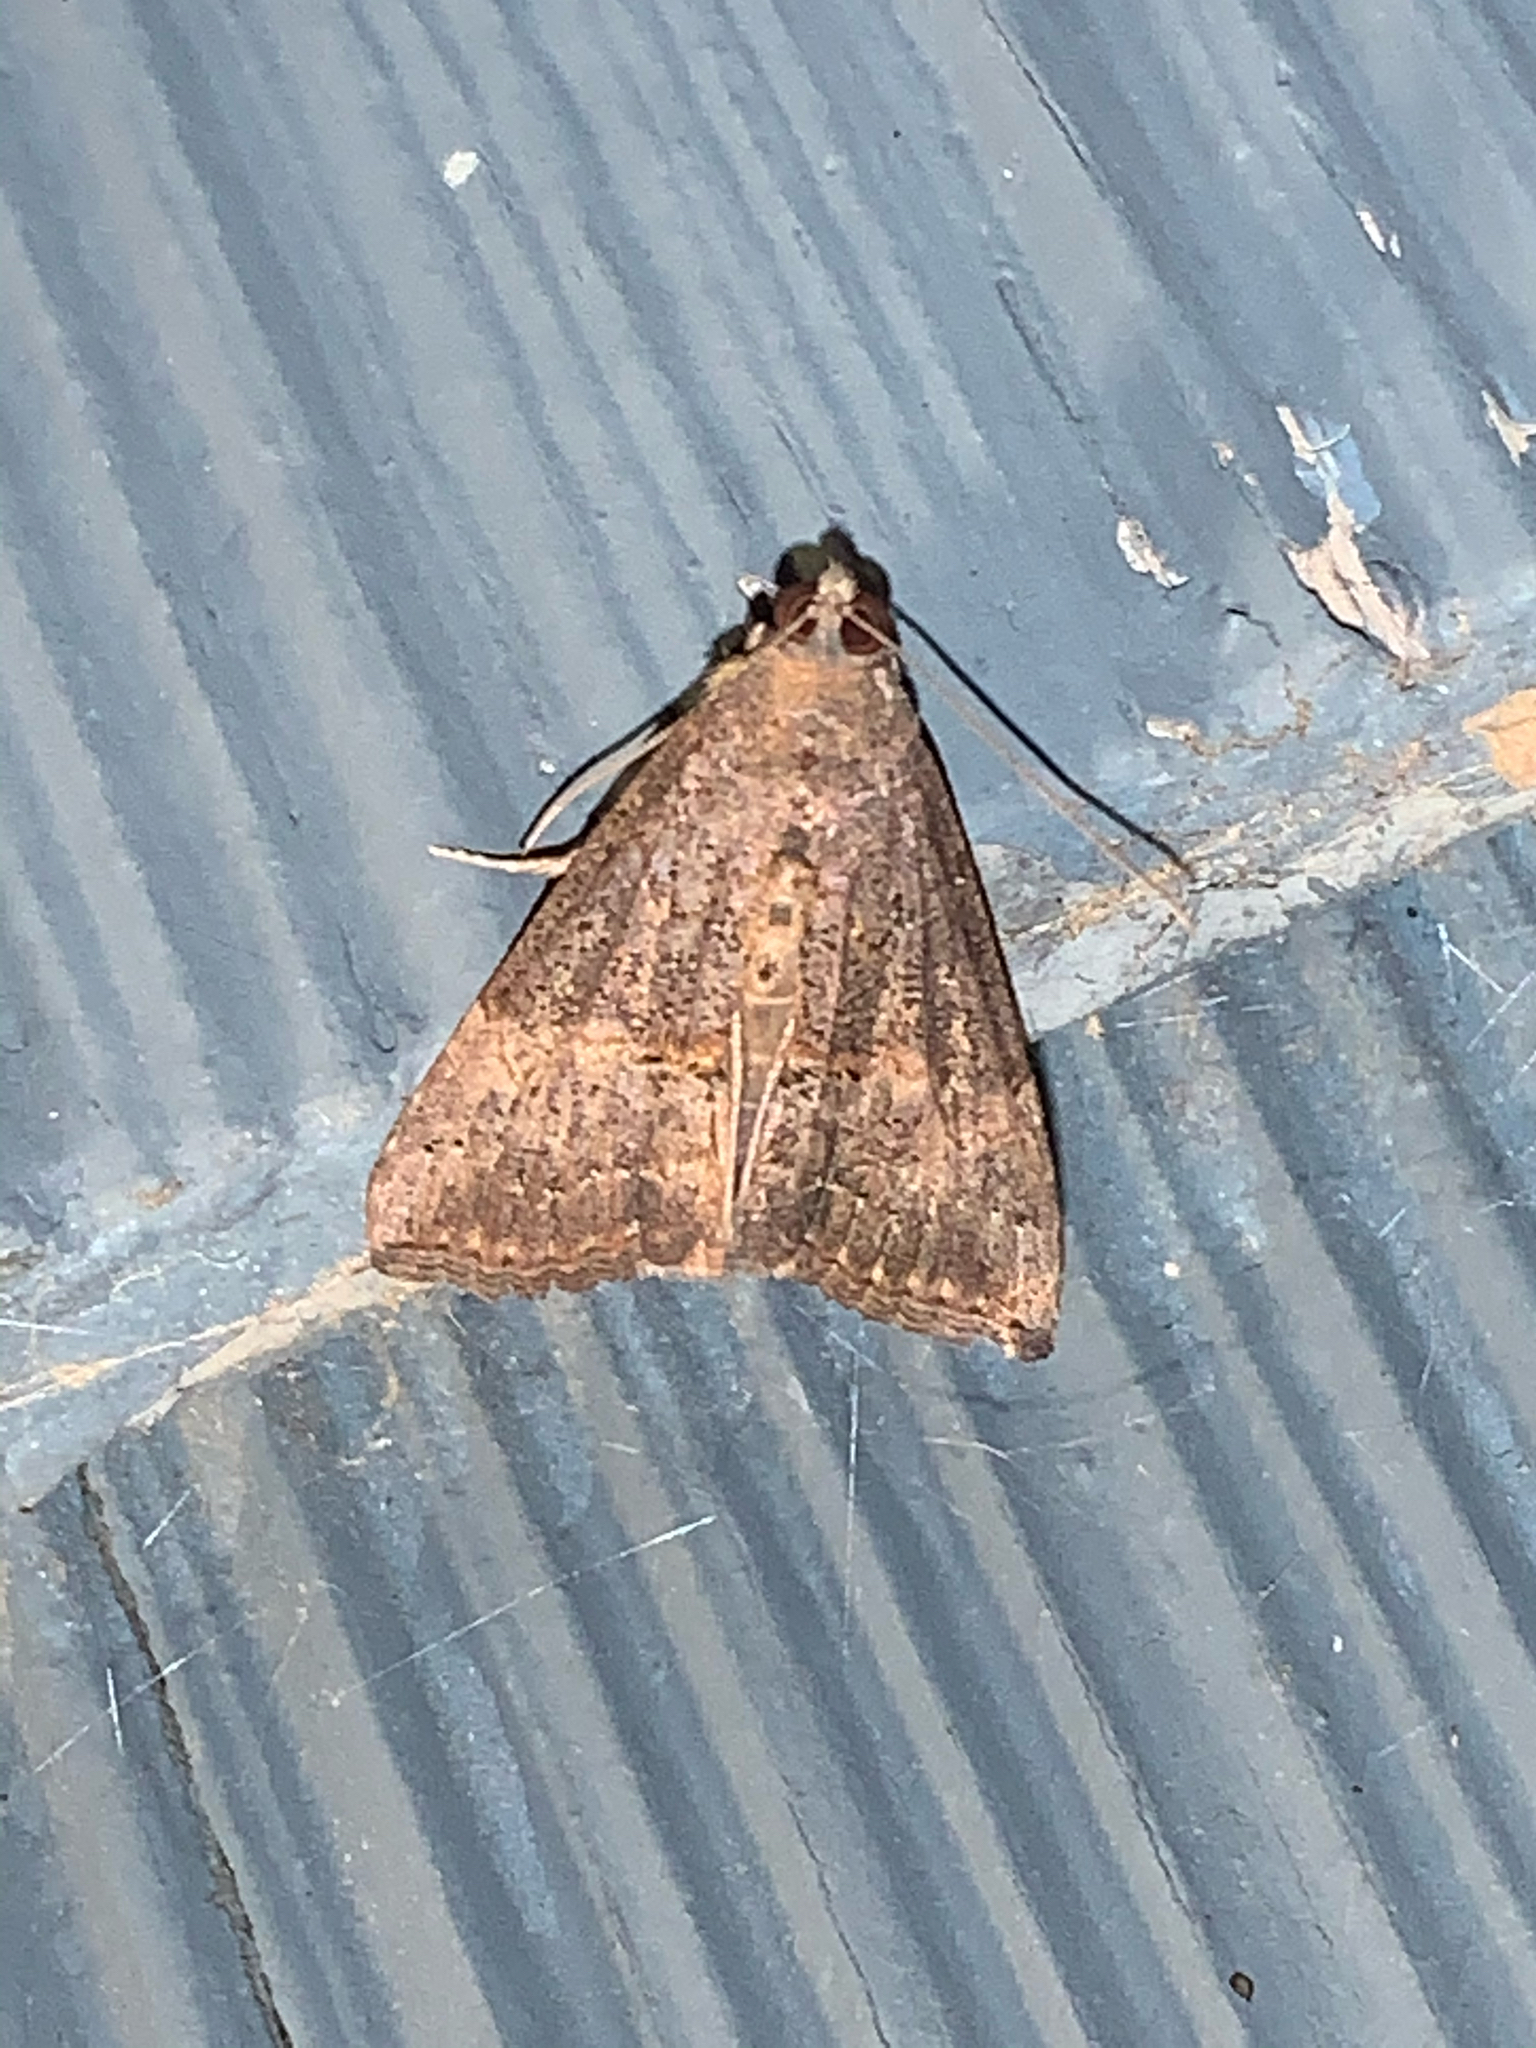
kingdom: Animalia
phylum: Arthropoda
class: Insecta
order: Lepidoptera
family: Erebidae
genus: Hypena
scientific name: Hypena scabra
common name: Green cloverworm
